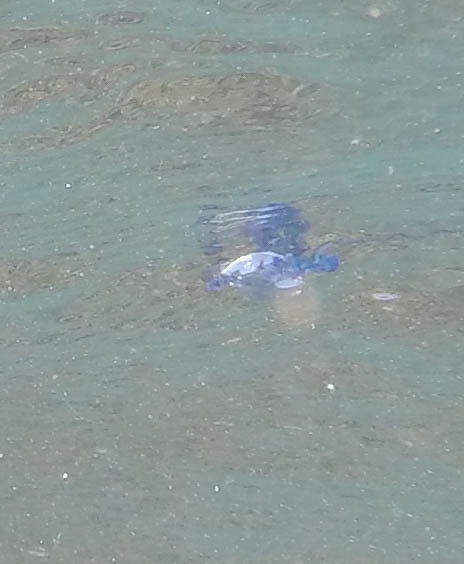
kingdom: Animalia
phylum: Cnidaria
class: Hydrozoa
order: Siphonophorae
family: Physaliidae
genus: Physalia
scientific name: Physalia physalis
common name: Portuguese man-of-war
